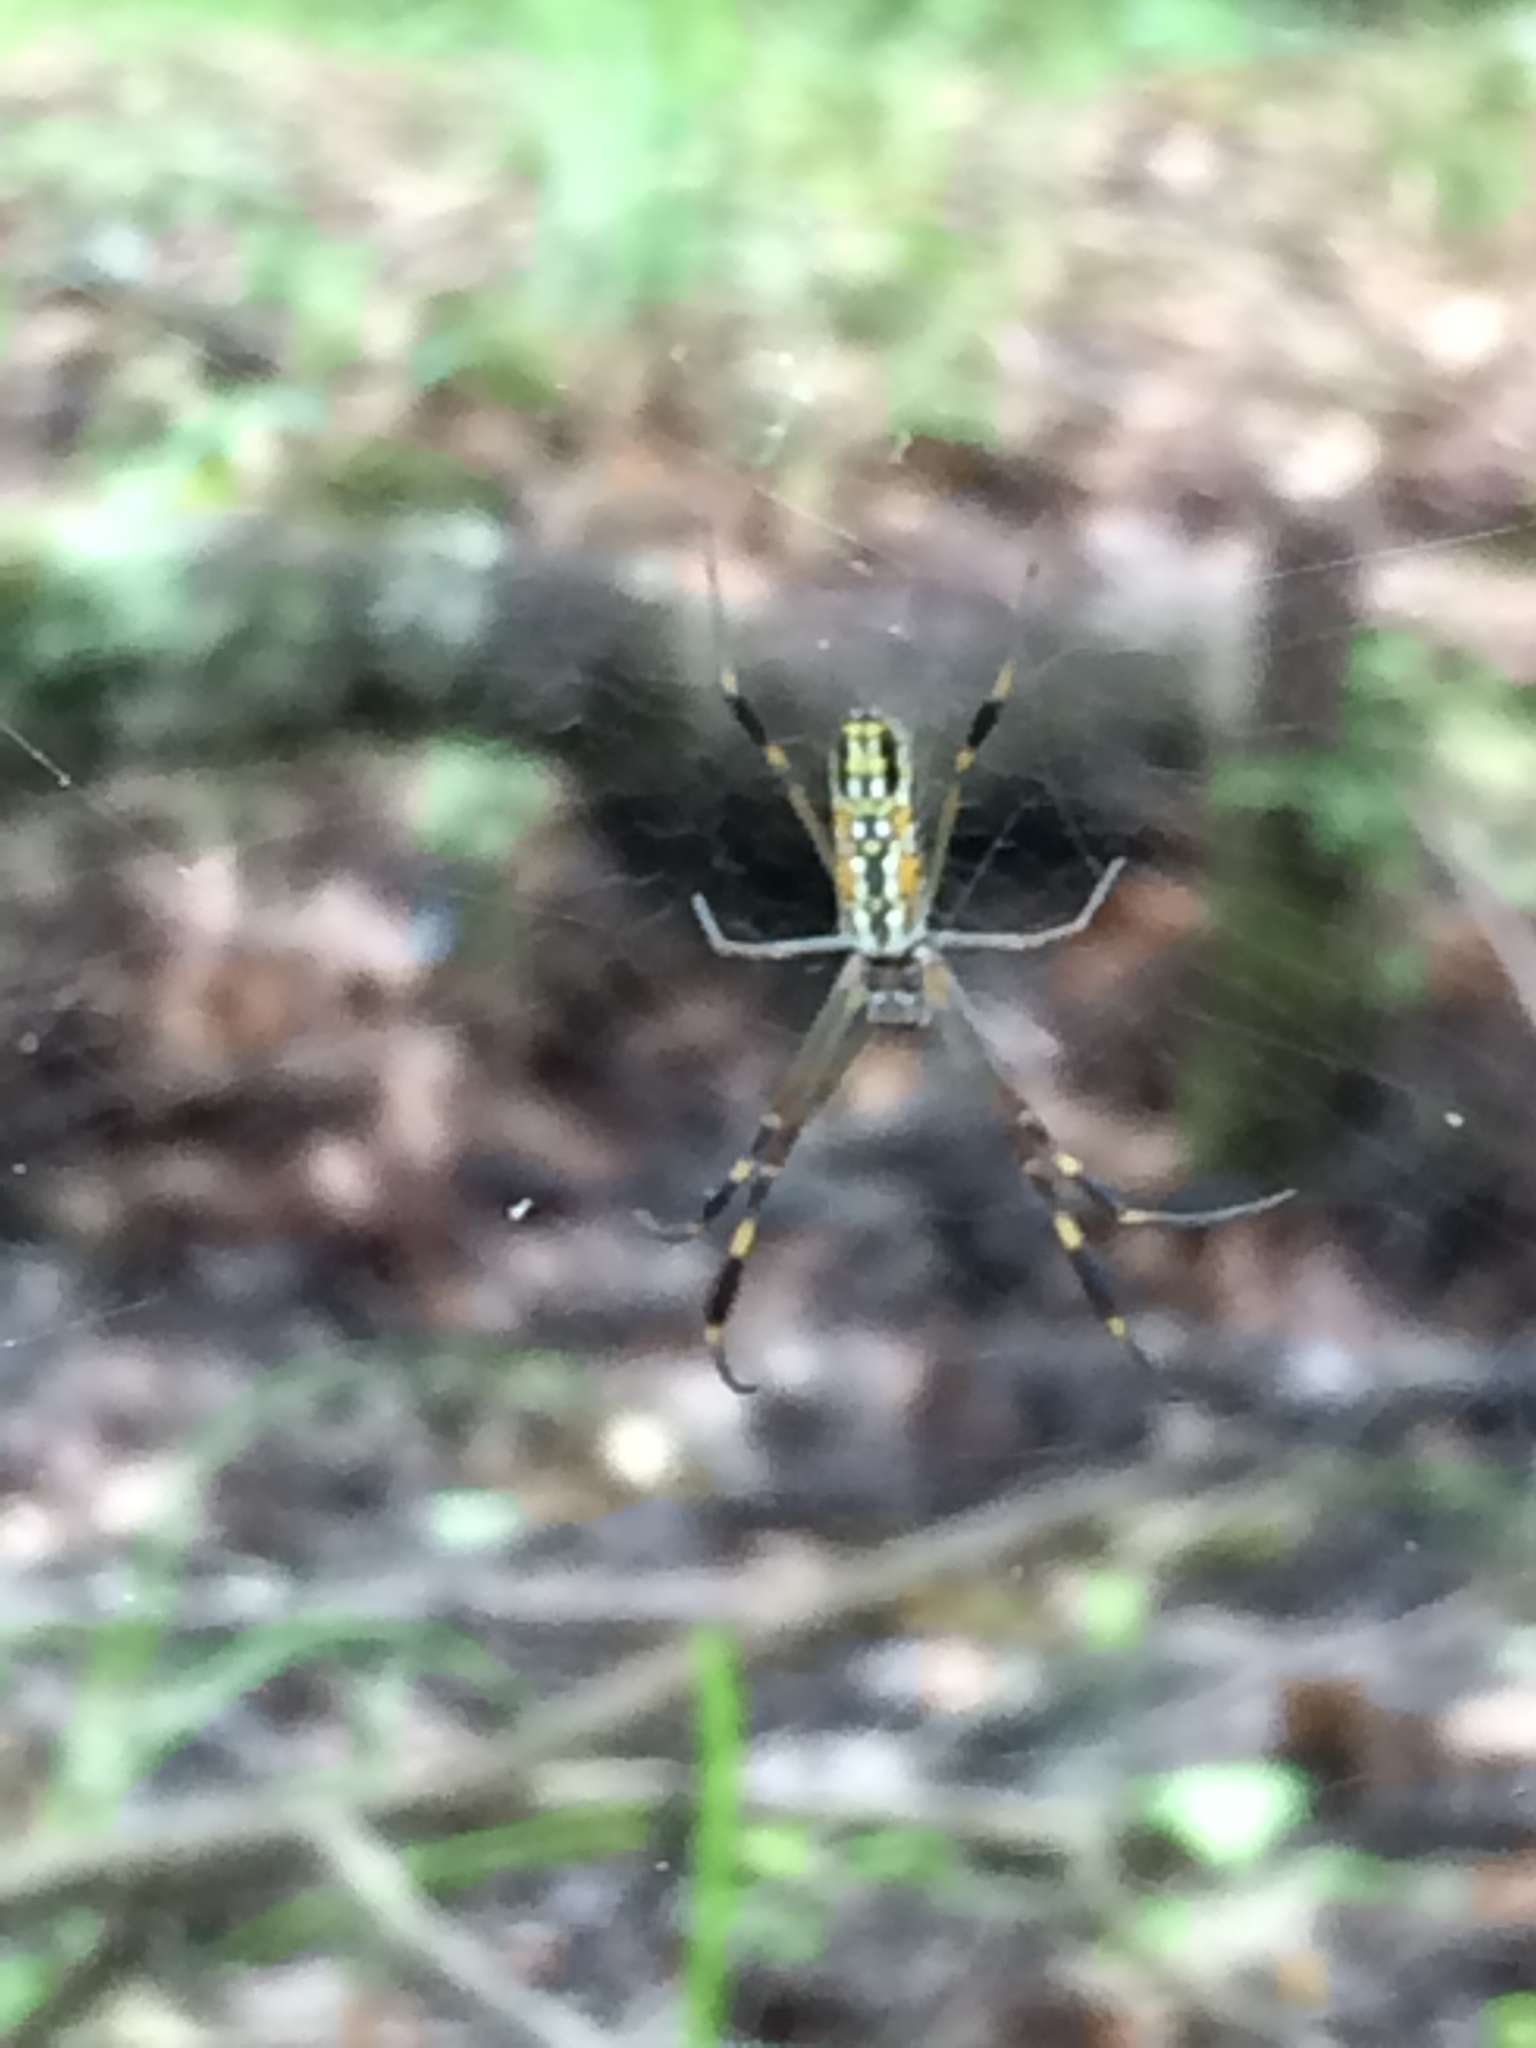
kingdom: Animalia
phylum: Arthropoda
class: Arachnida
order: Araneae
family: Araneidae
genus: Trichonephila
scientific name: Trichonephila clavipes
